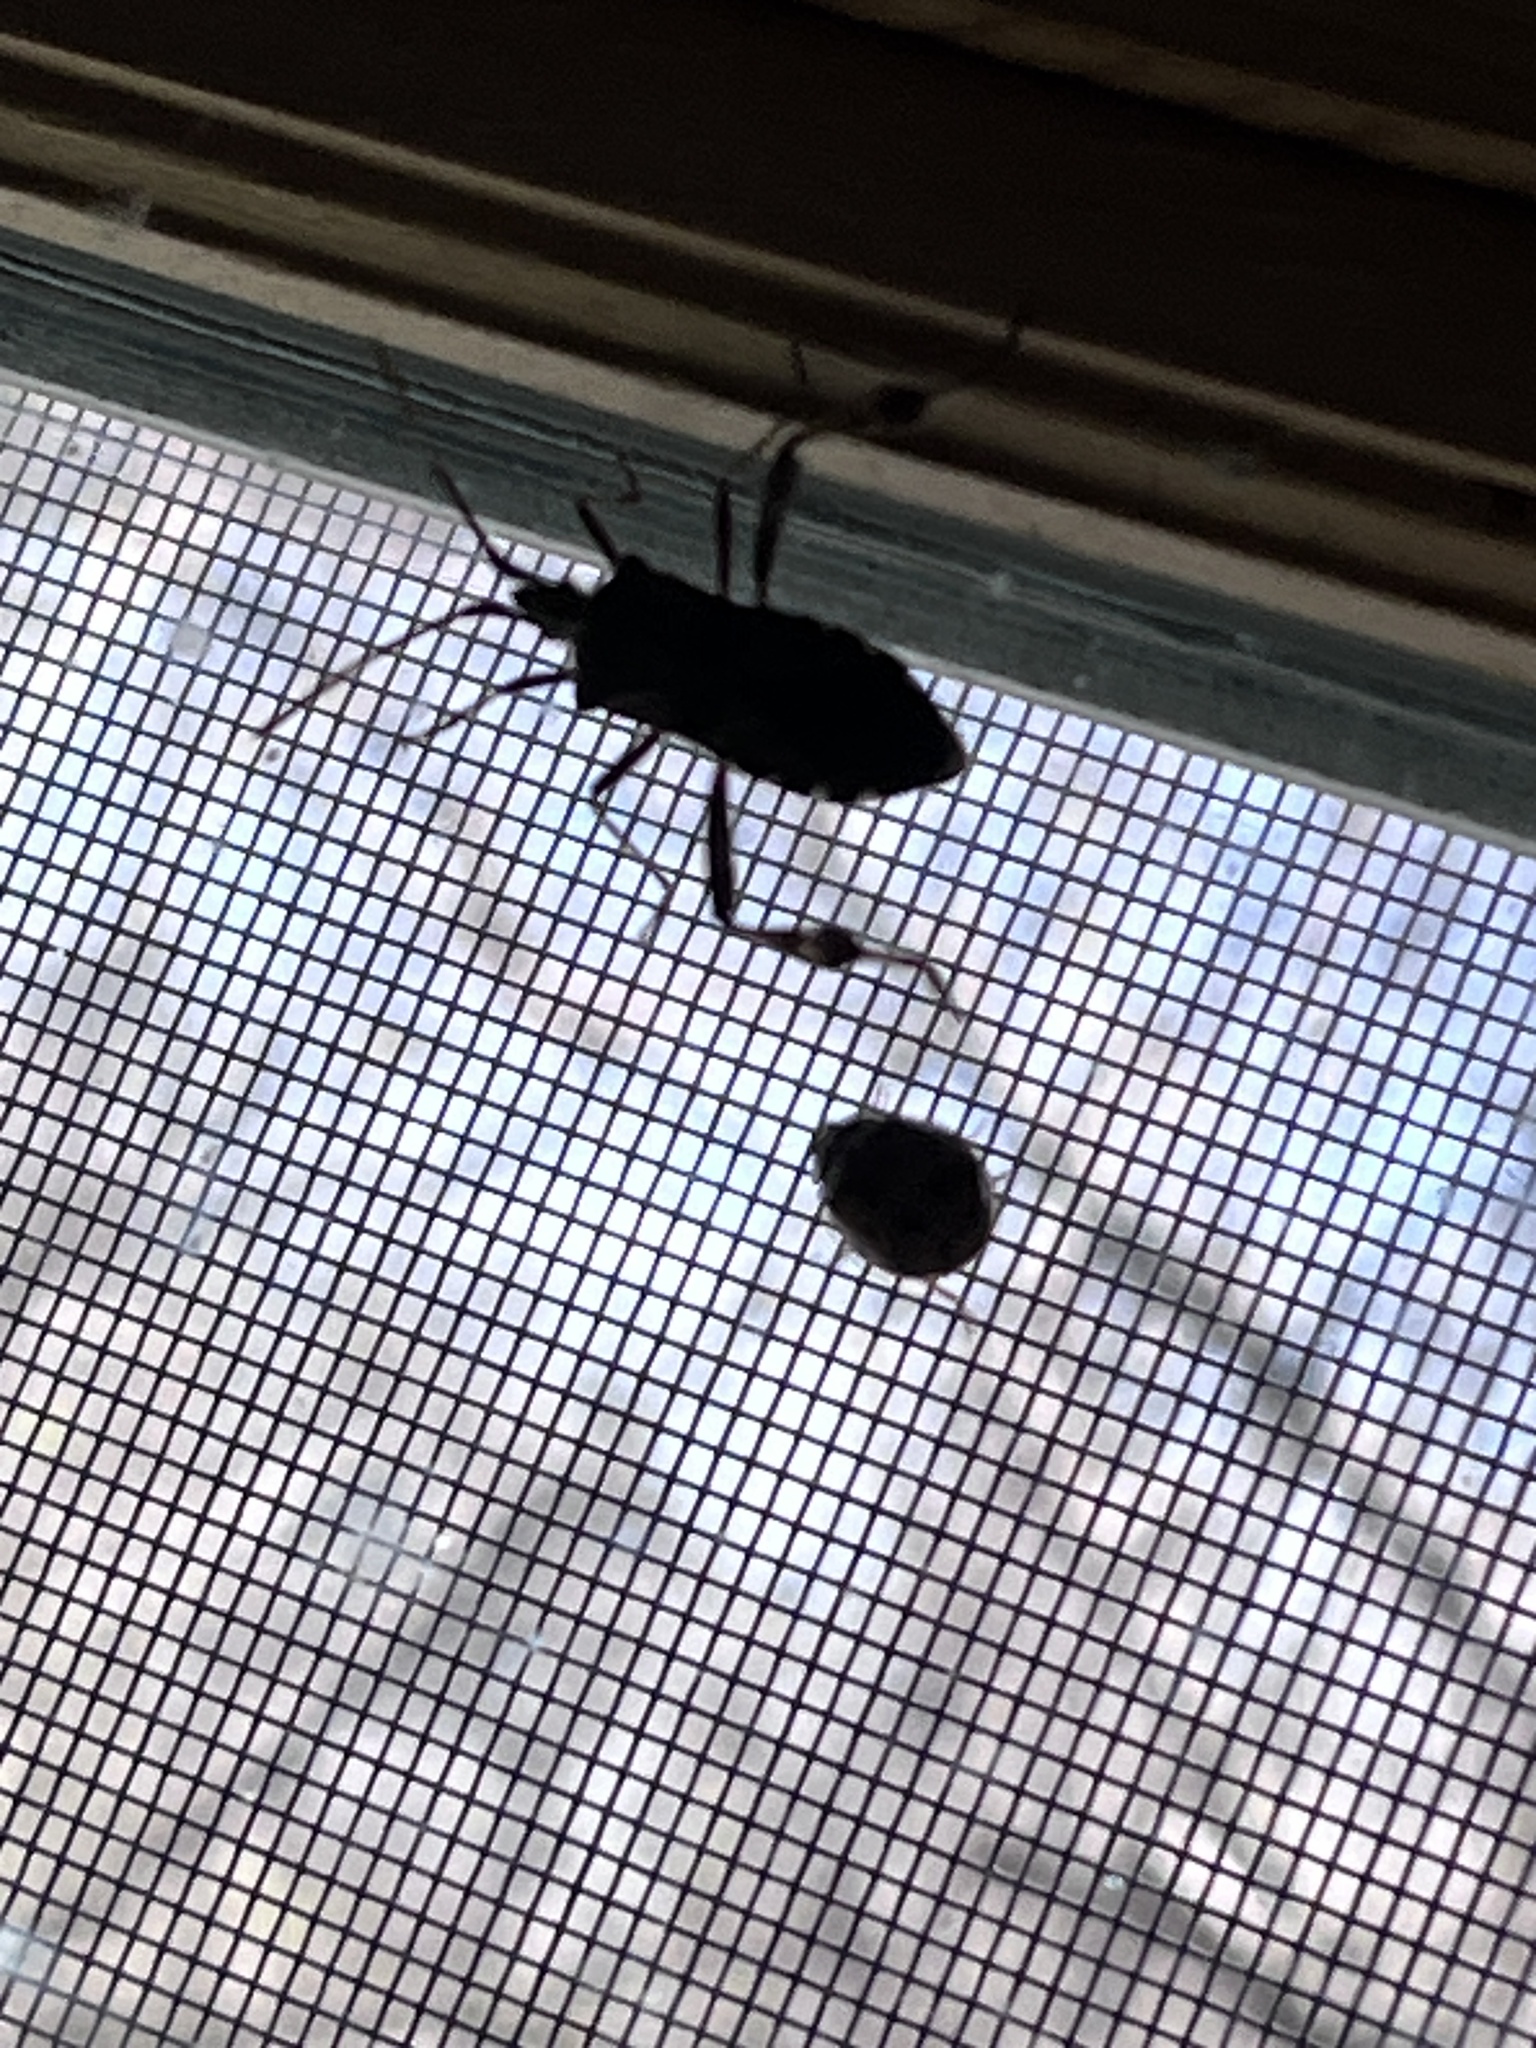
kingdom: Animalia
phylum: Arthropoda
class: Insecta
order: Hemiptera
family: Coreidae
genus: Leptoglossus
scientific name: Leptoglossus occidentalis
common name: Western conifer-seed bug
